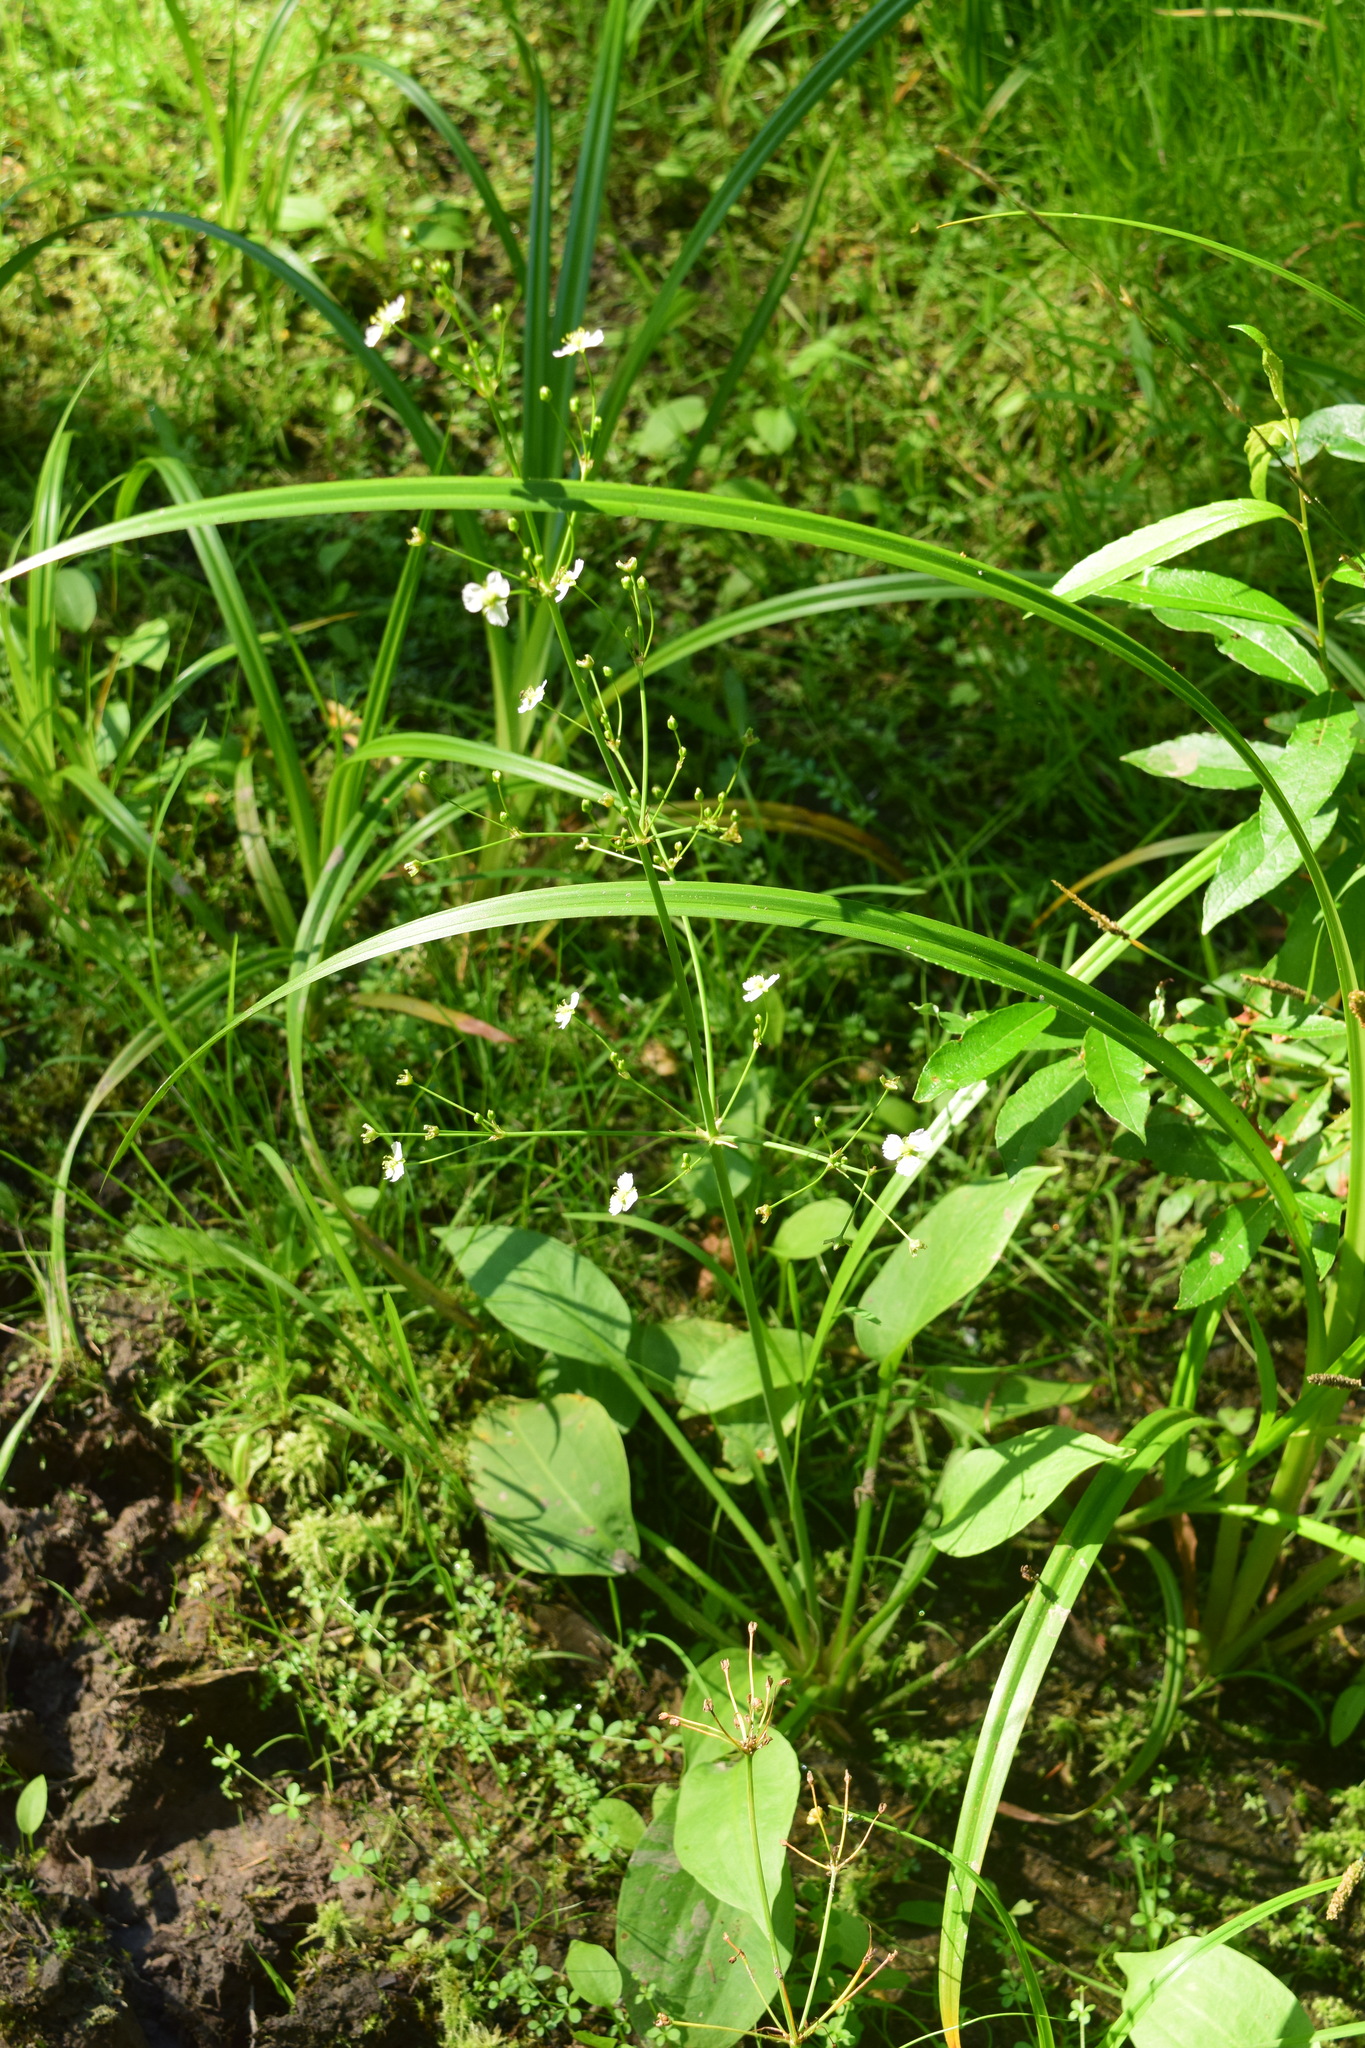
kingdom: Plantae
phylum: Tracheophyta
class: Liliopsida
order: Alismatales
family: Alismataceae
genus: Alisma
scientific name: Alisma plantago-aquatica
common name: Water-plantain
